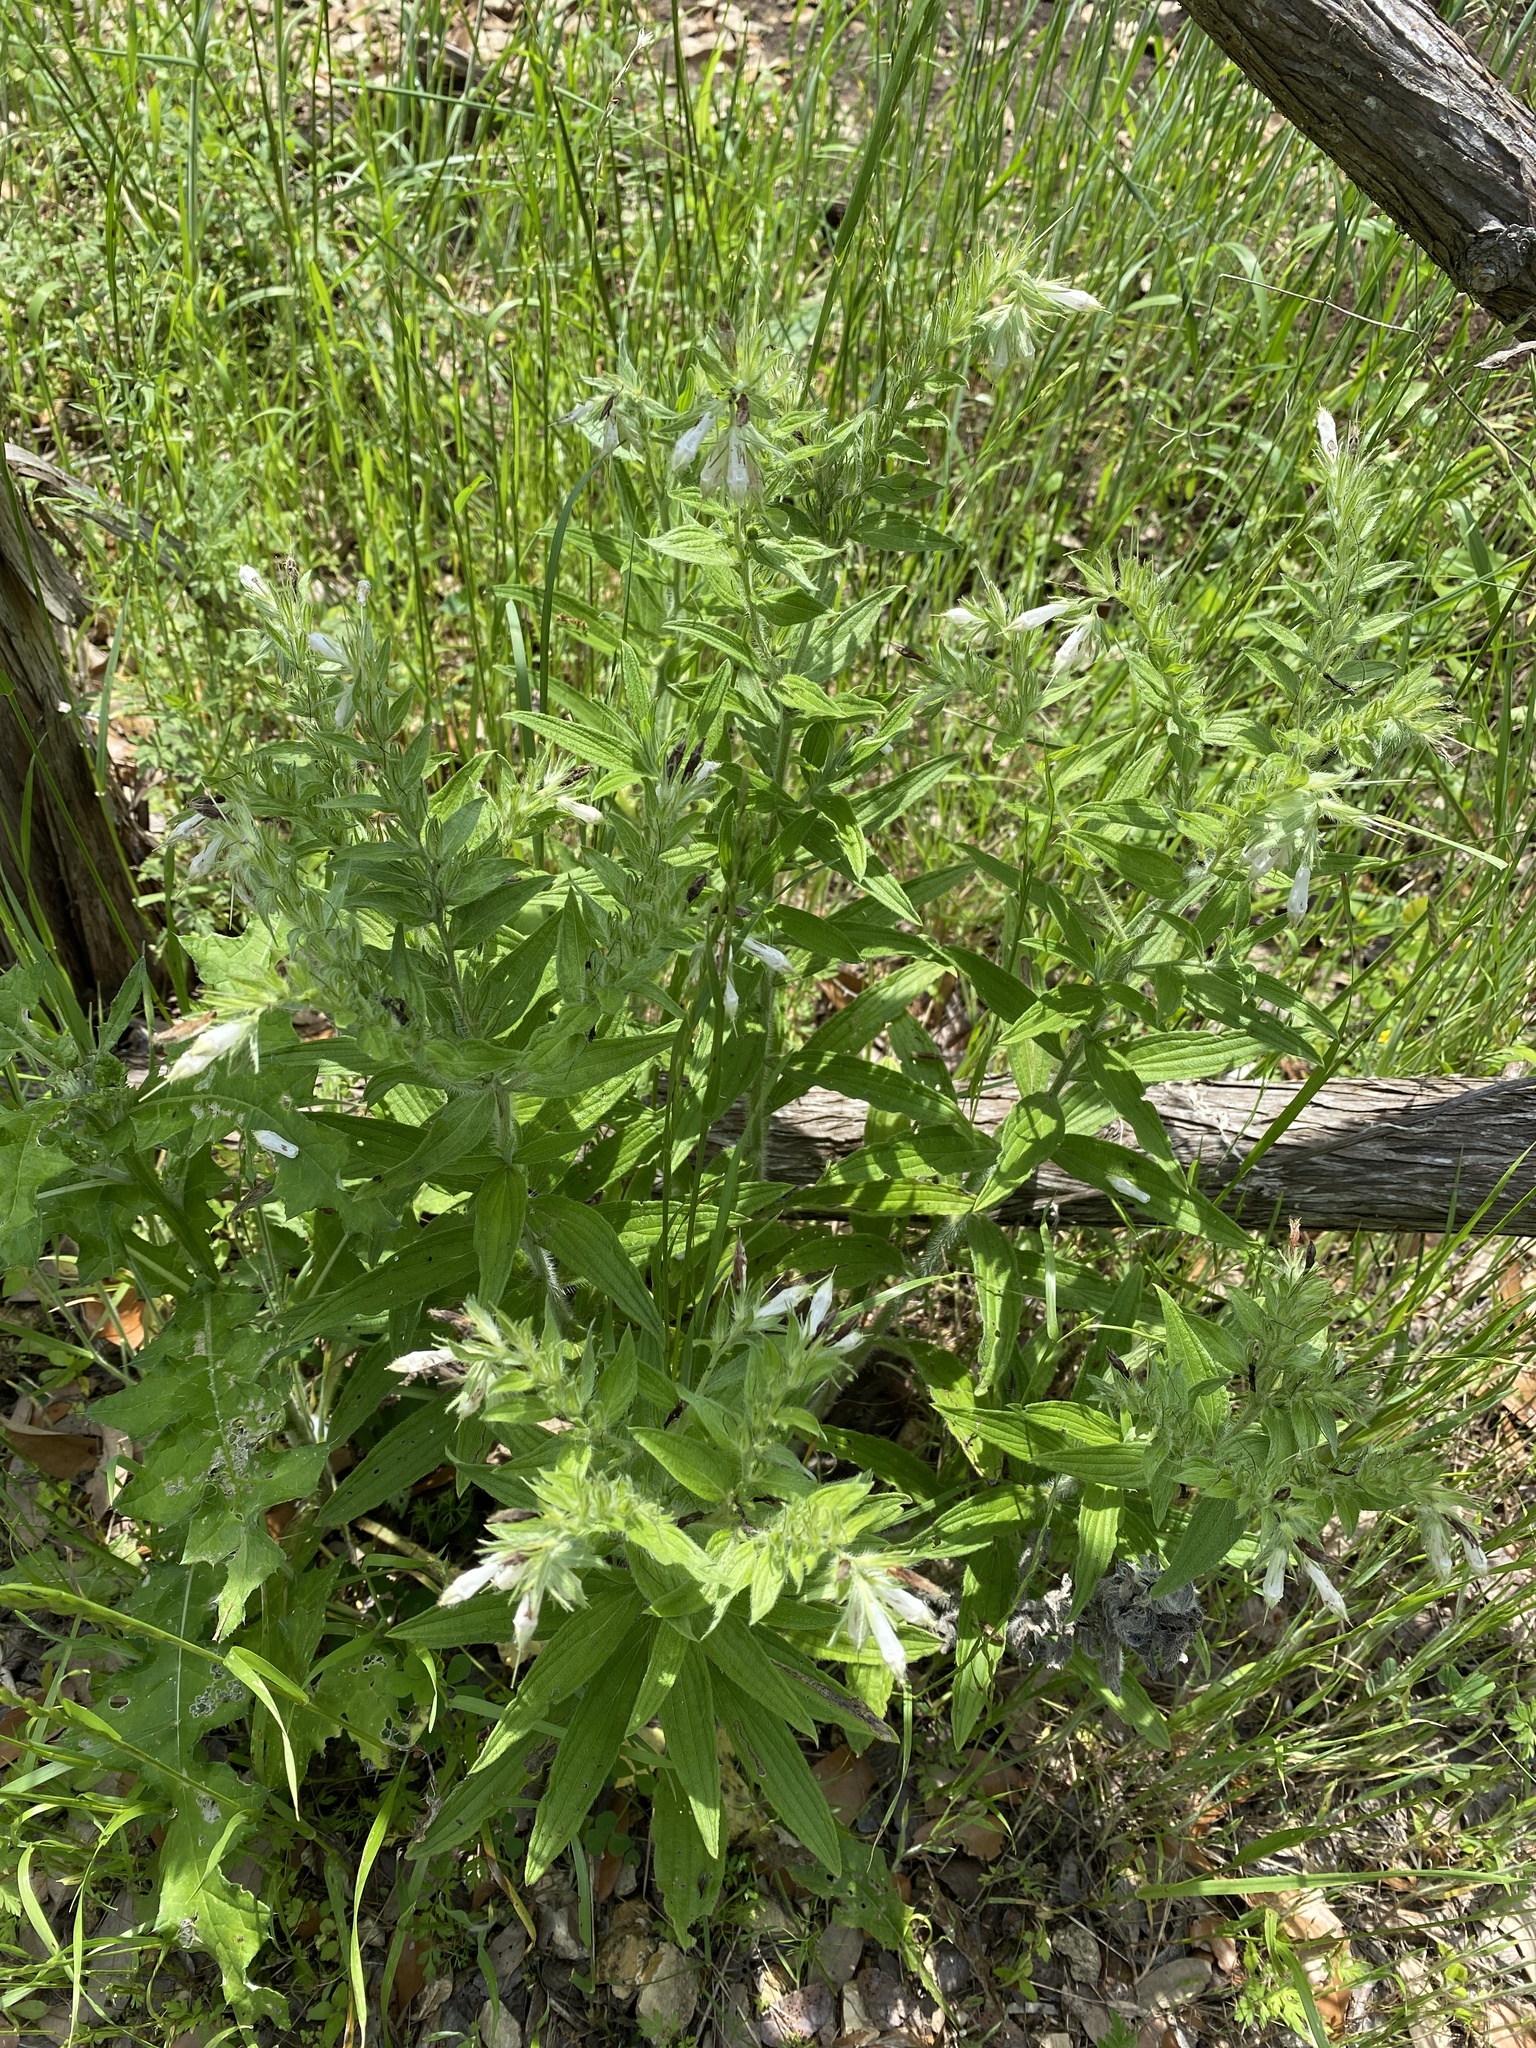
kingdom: Plantae
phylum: Tracheophyta
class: Magnoliopsida
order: Boraginales
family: Boraginaceae
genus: Lithospermum
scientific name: Lithospermum caroliniense
